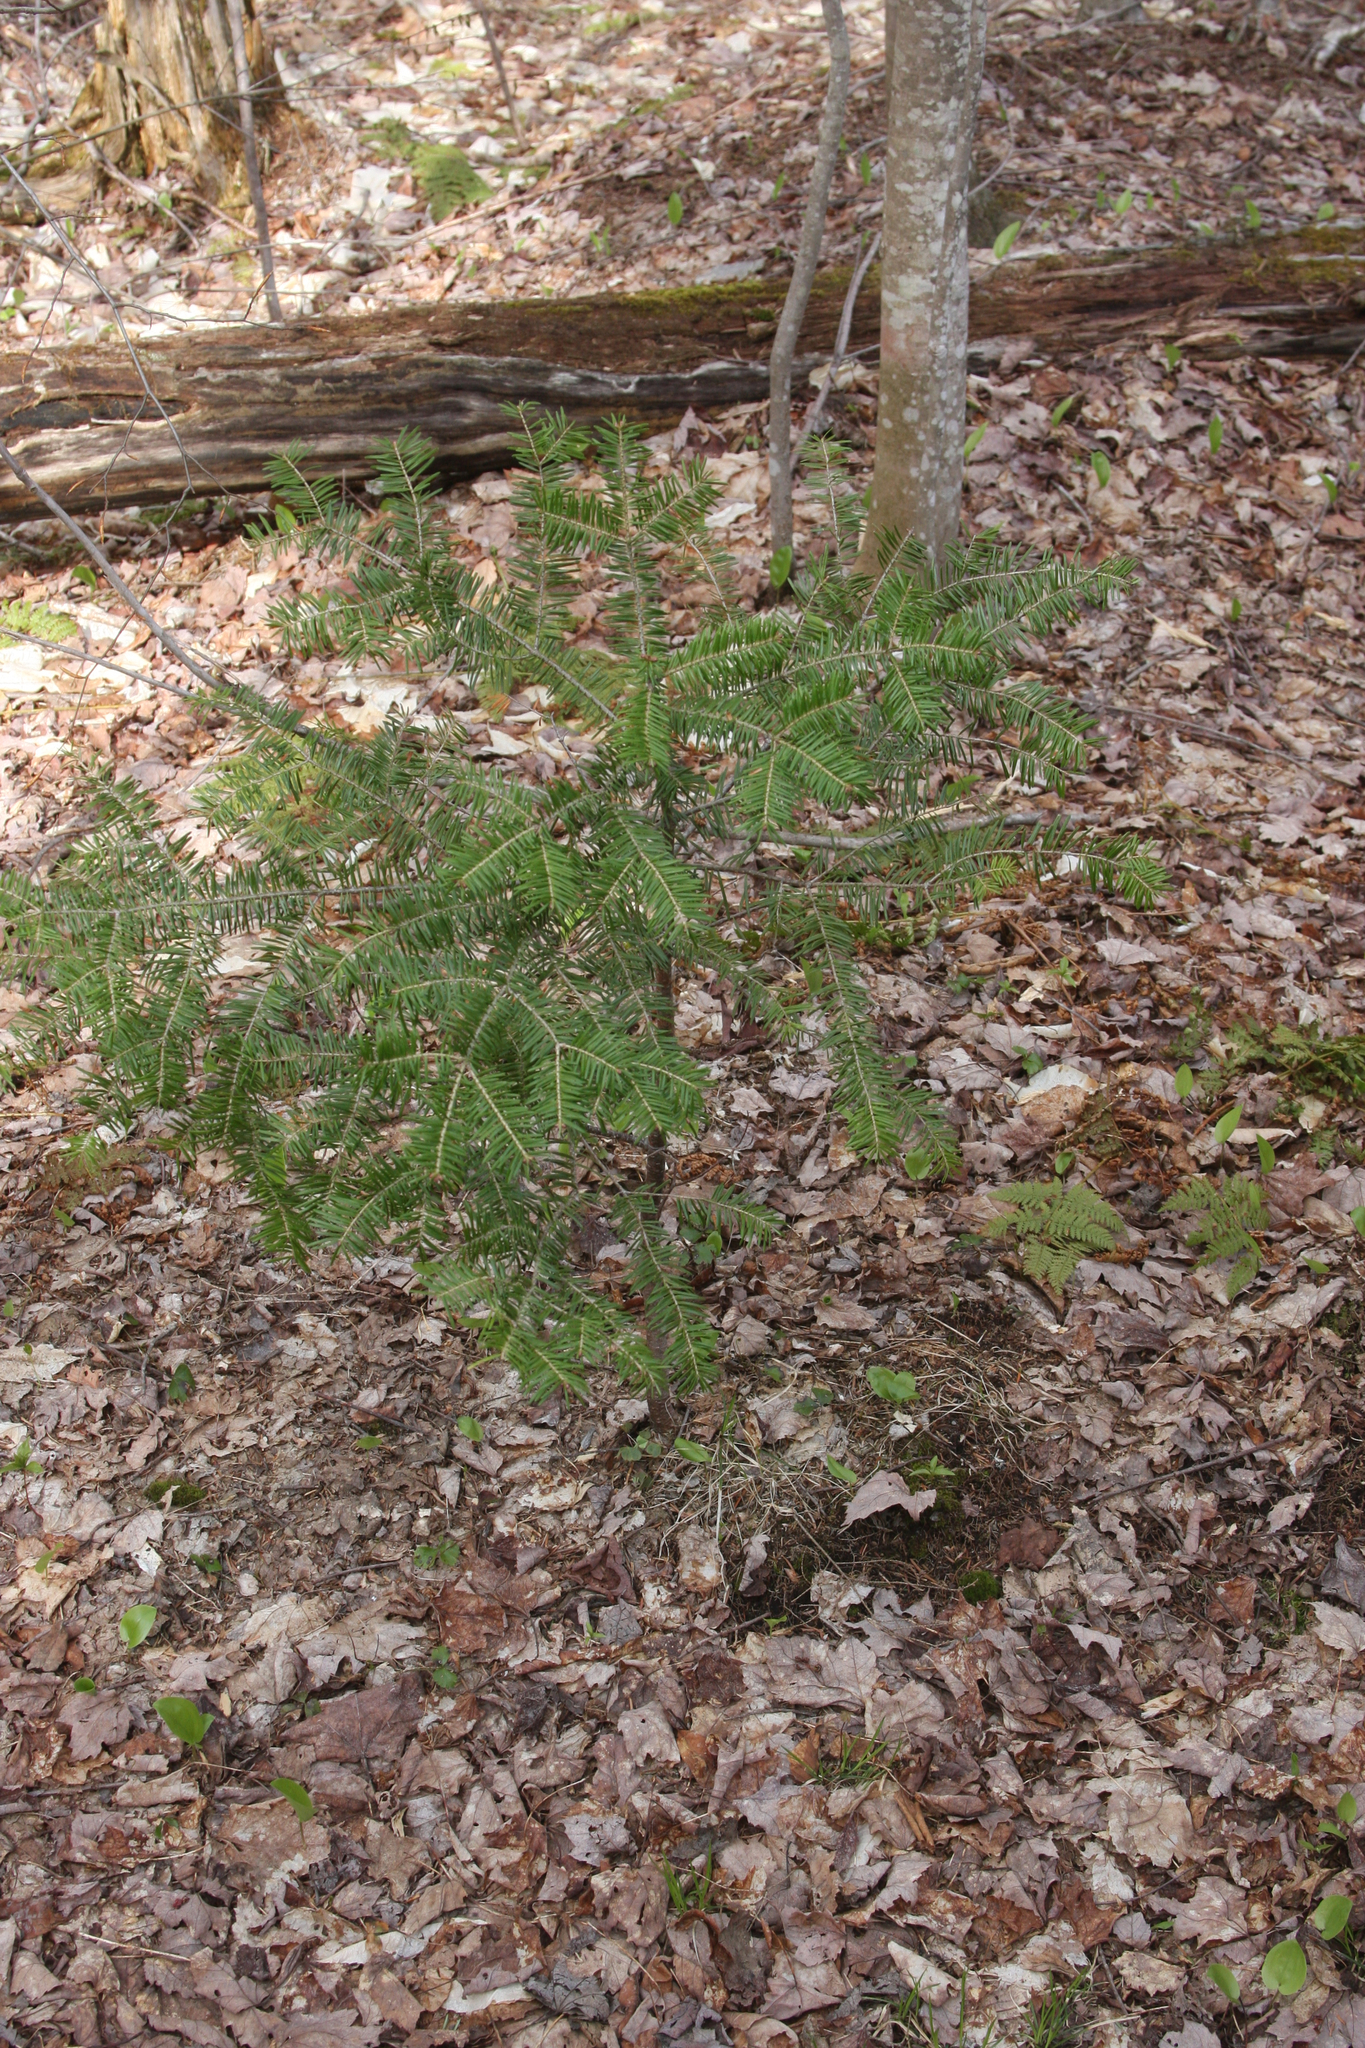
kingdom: Plantae
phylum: Tracheophyta
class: Pinopsida
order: Pinales
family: Pinaceae
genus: Abies
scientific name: Abies balsamea
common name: Balsam fir
